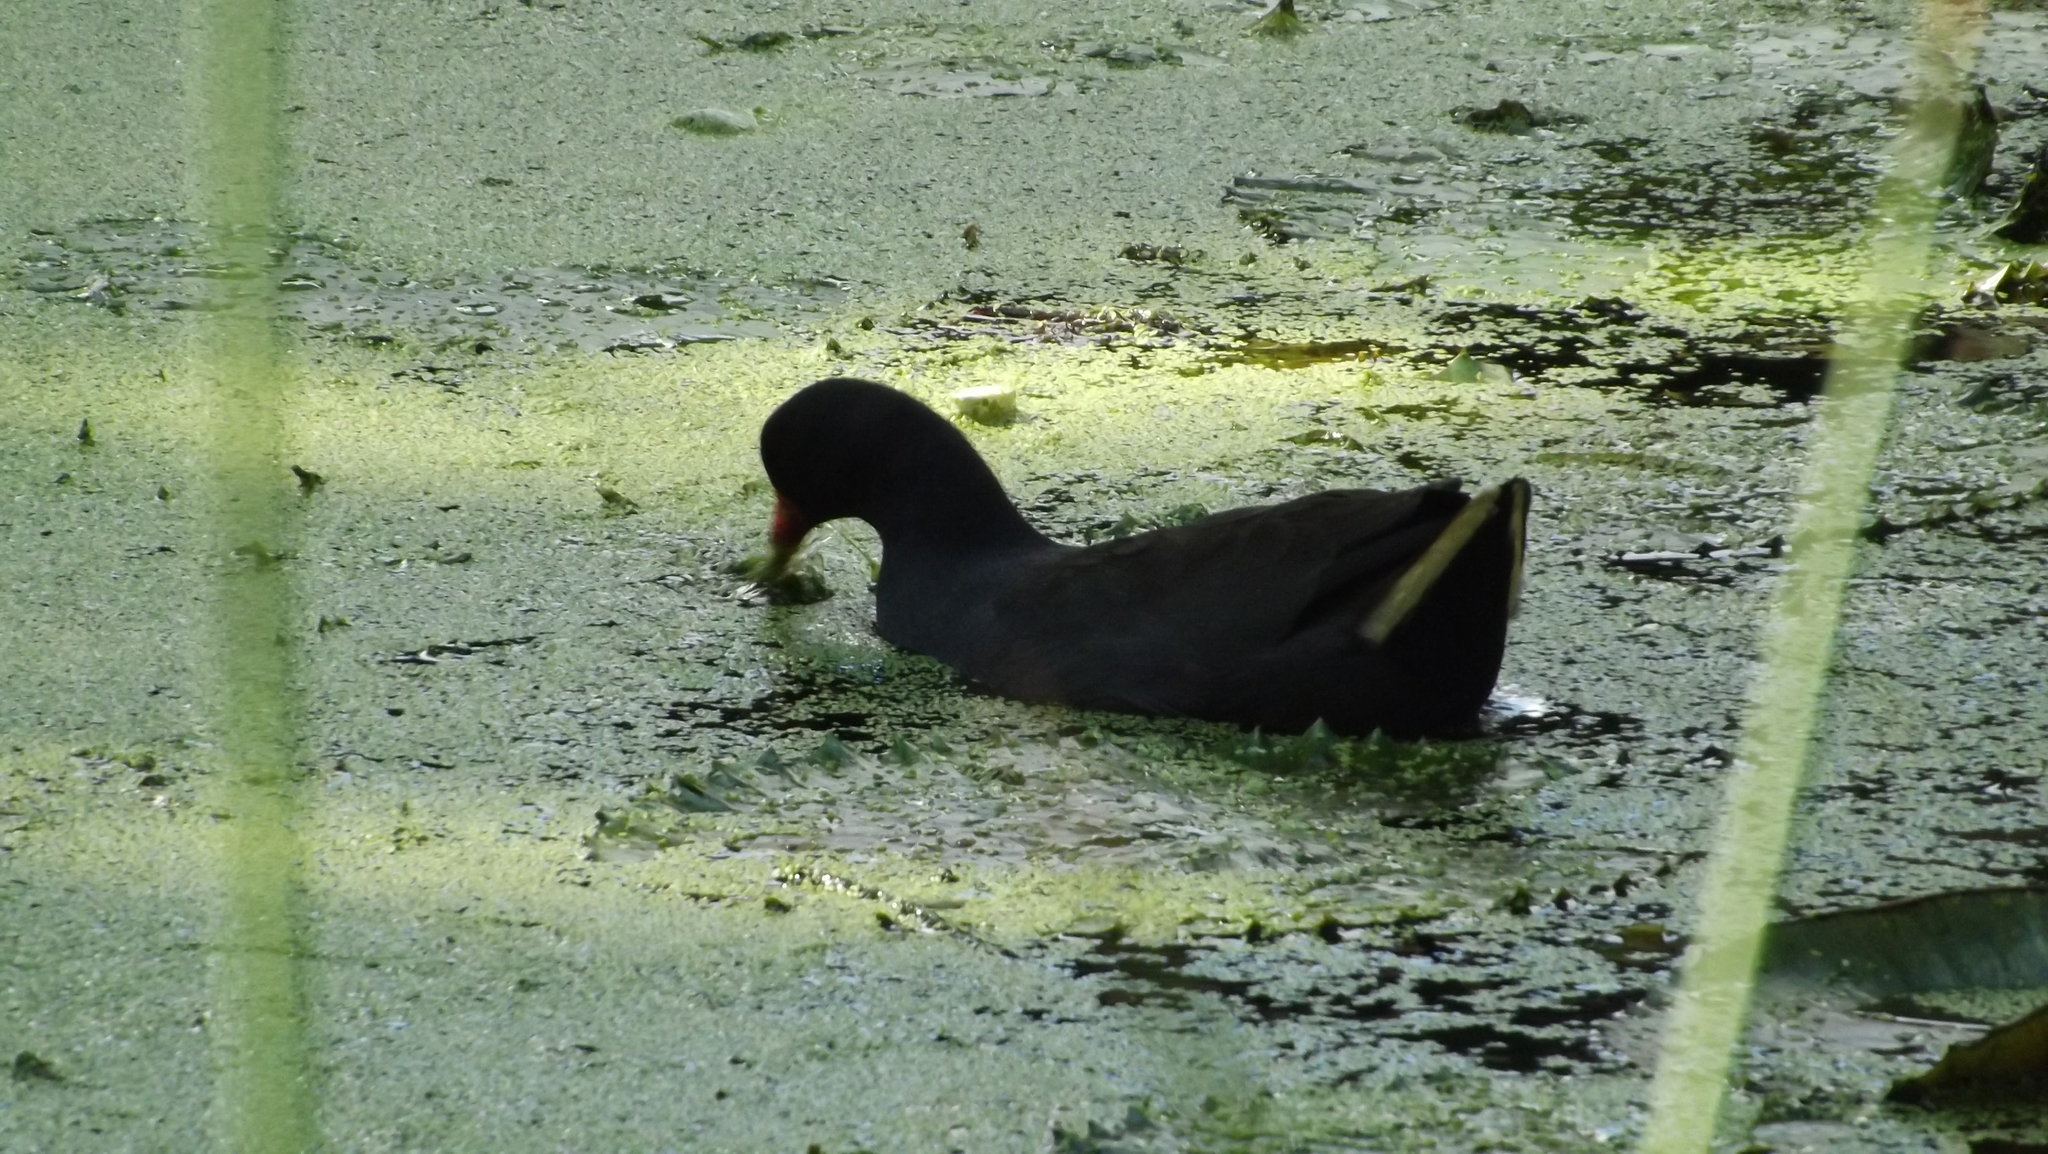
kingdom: Animalia
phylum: Chordata
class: Aves
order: Gruiformes
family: Rallidae
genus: Gallinula
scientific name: Gallinula tenebrosa
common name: Dusky moorhen
